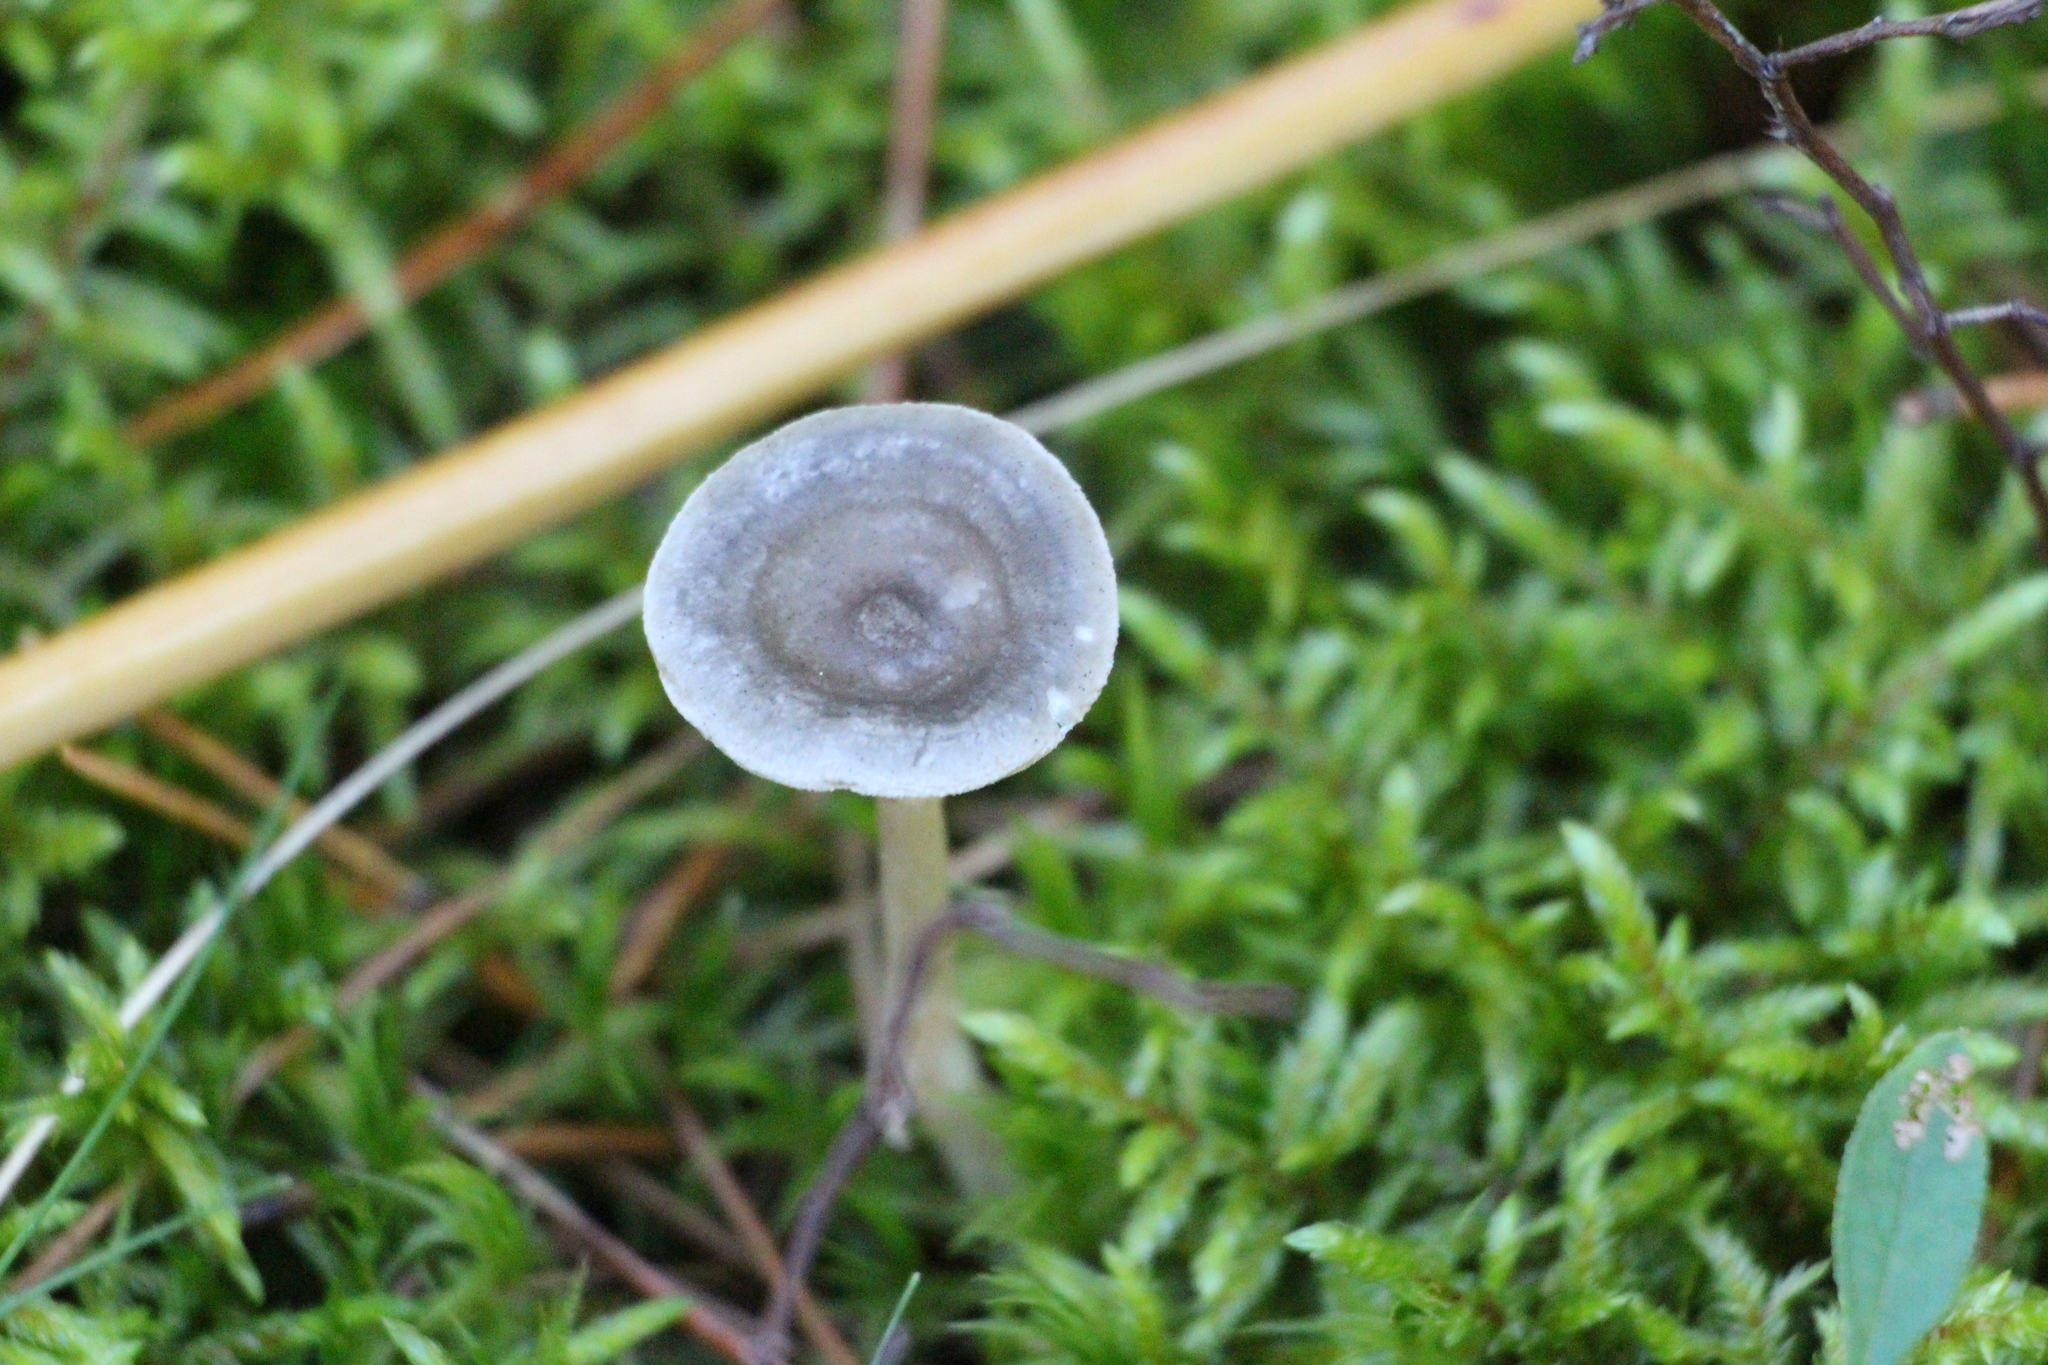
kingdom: Fungi
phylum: Basidiomycota
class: Agaricomycetes
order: Agaricales
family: Hygrophoraceae
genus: Cantharellula
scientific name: Cantharellula umbonata
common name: The humpback
